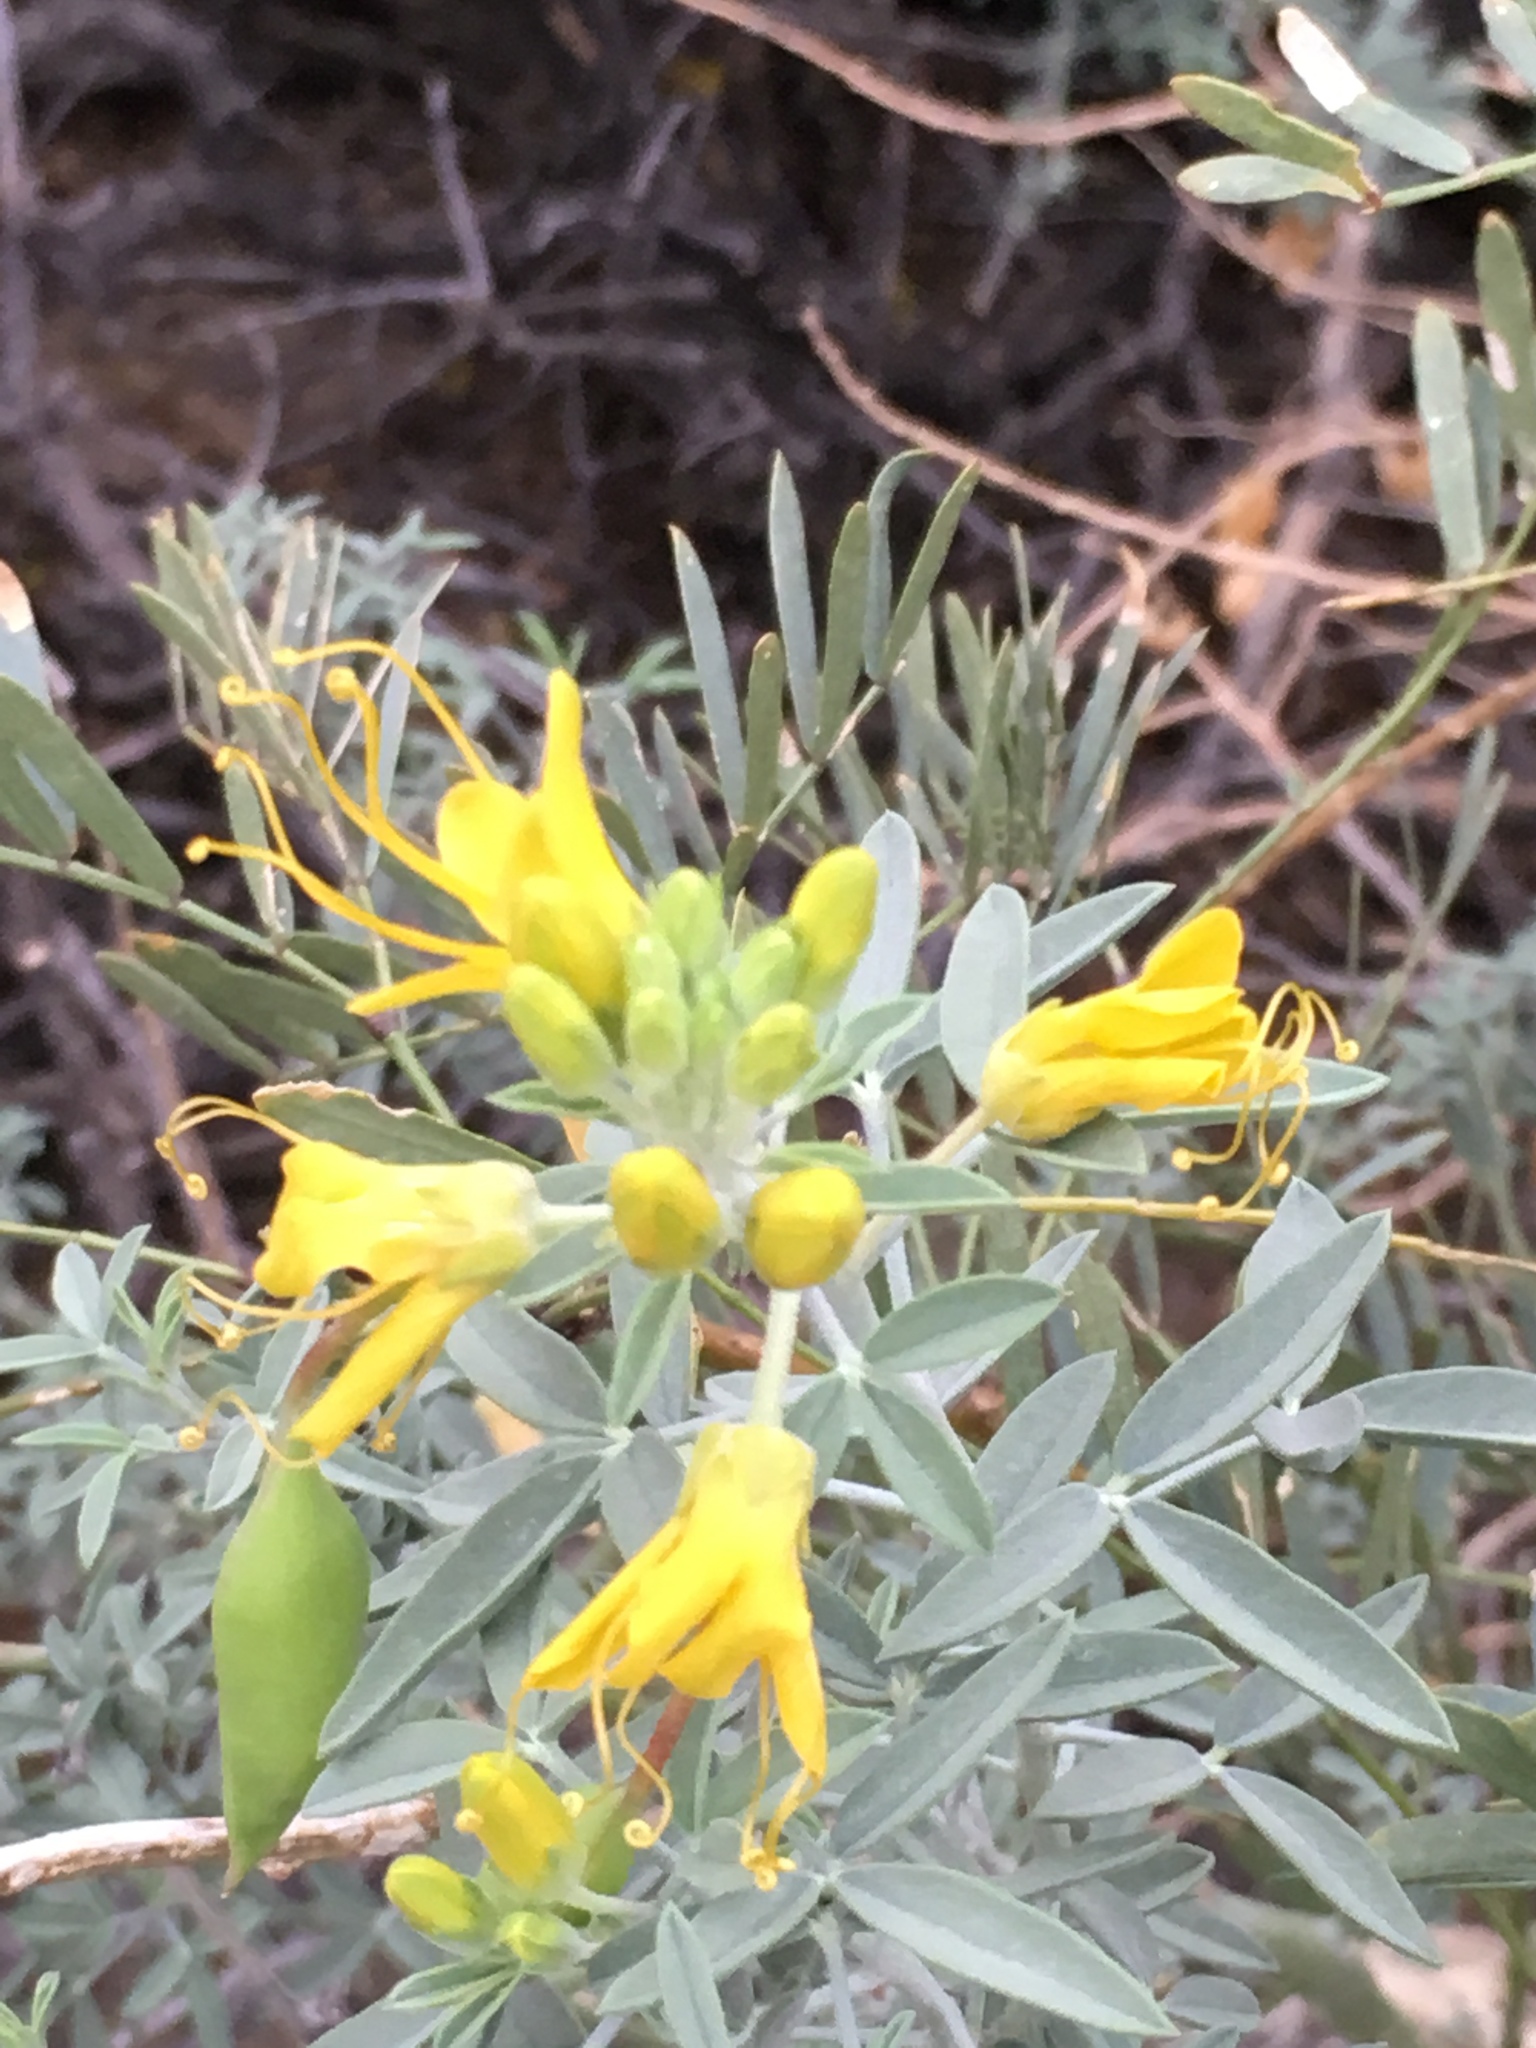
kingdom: Plantae
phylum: Tracheophyta
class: Magnoliopsida
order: Brassicales
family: Cleomaceae
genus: Cleomella
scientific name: Cleomella arborea
